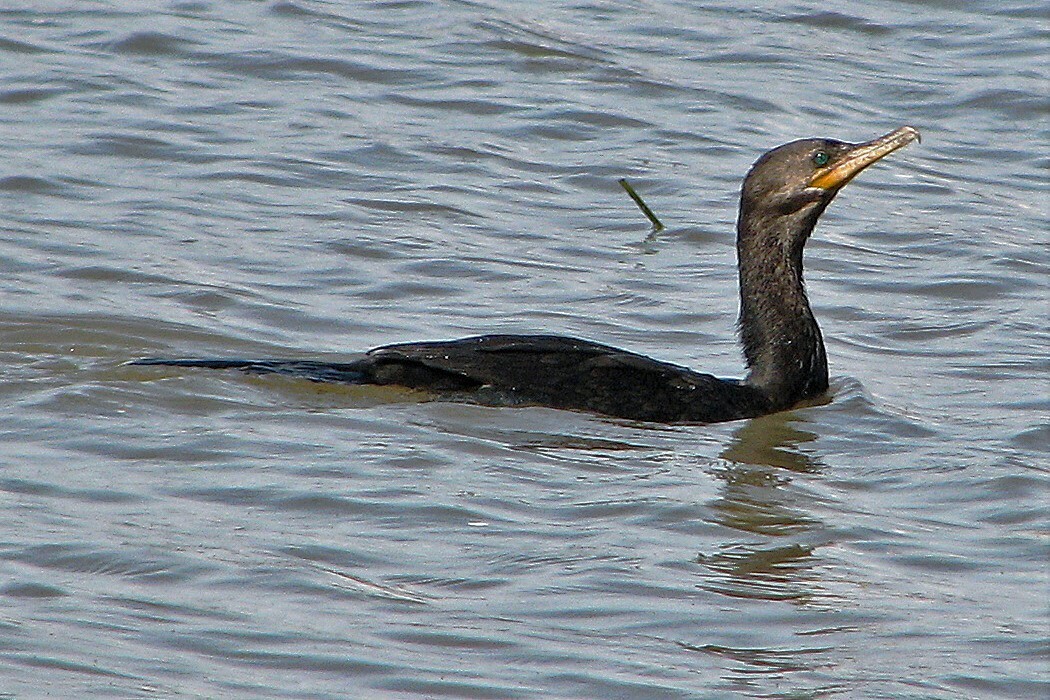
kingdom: Animalia
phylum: Chordata
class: Aves
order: Suliformes
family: Phalacrocoracidae
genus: Phalacrocorax
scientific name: Phalacrocorax brasilianus
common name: Neotropic cormorant
